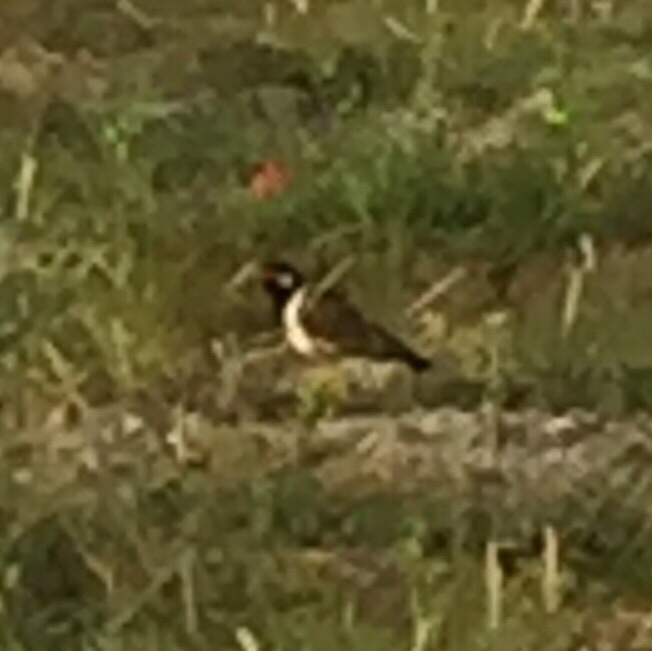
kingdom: Animalia
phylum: Chordata
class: Aves
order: Charadriiformes
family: Charadriidae
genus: Vanellus
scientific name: Vanellus indicus
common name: Red-wattled lapwing
